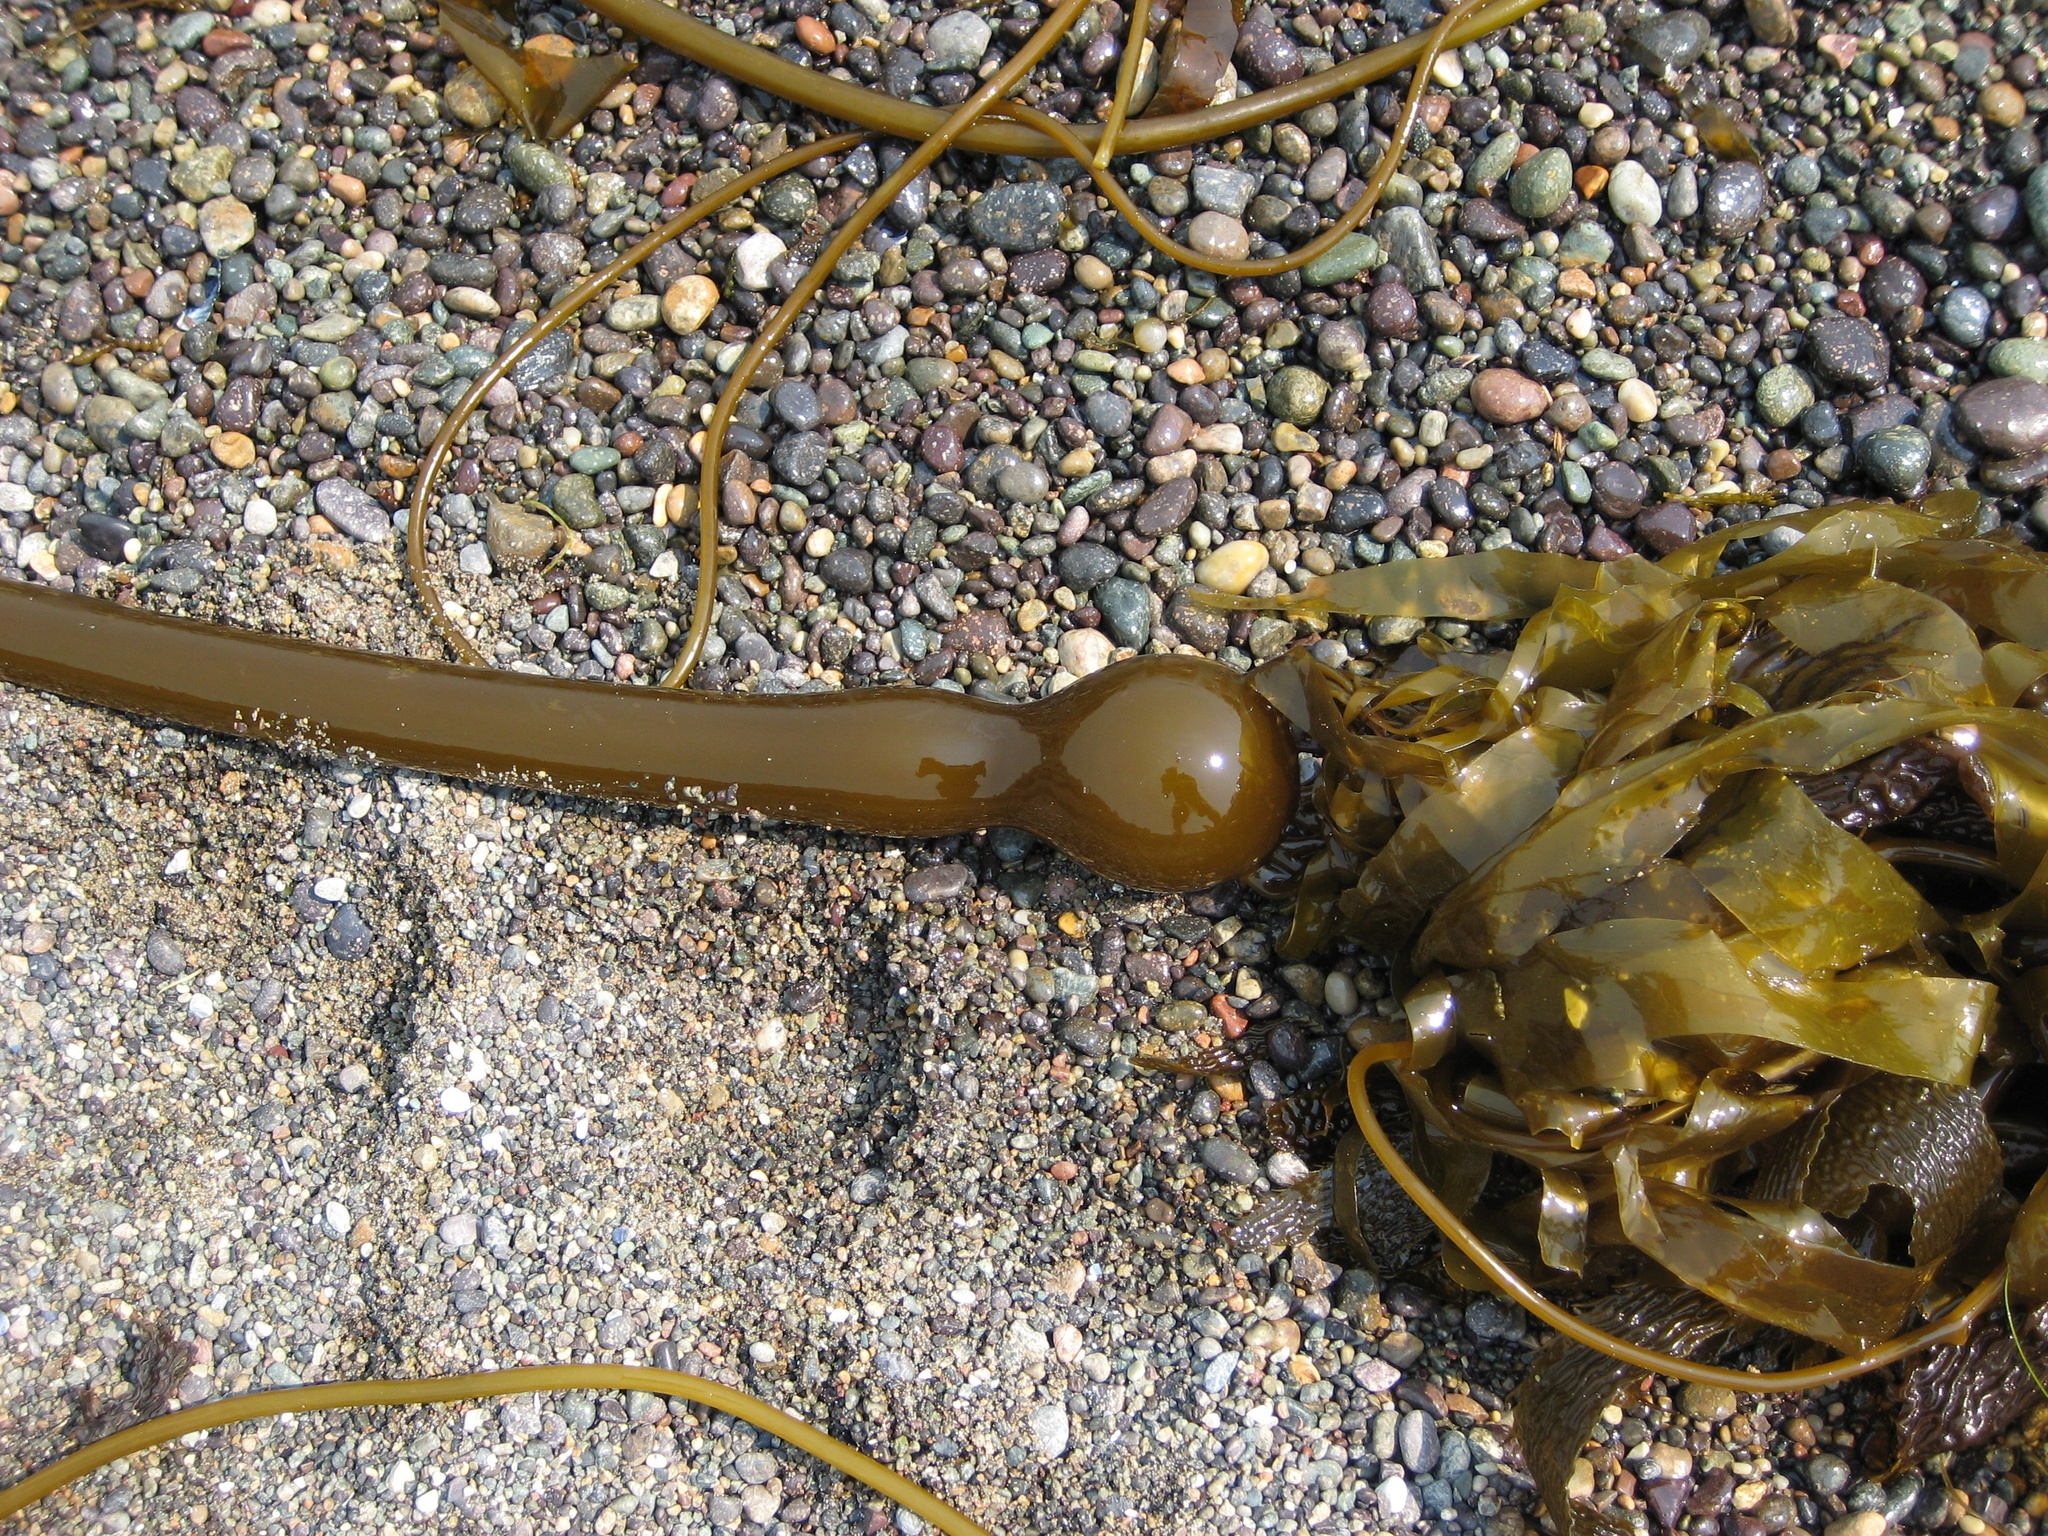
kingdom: Chromista
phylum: Ochrophyta
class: Phaeophyceae
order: Laminariales
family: Laminariaceae
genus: Nereocystis
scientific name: Nereocystis luetkeana
